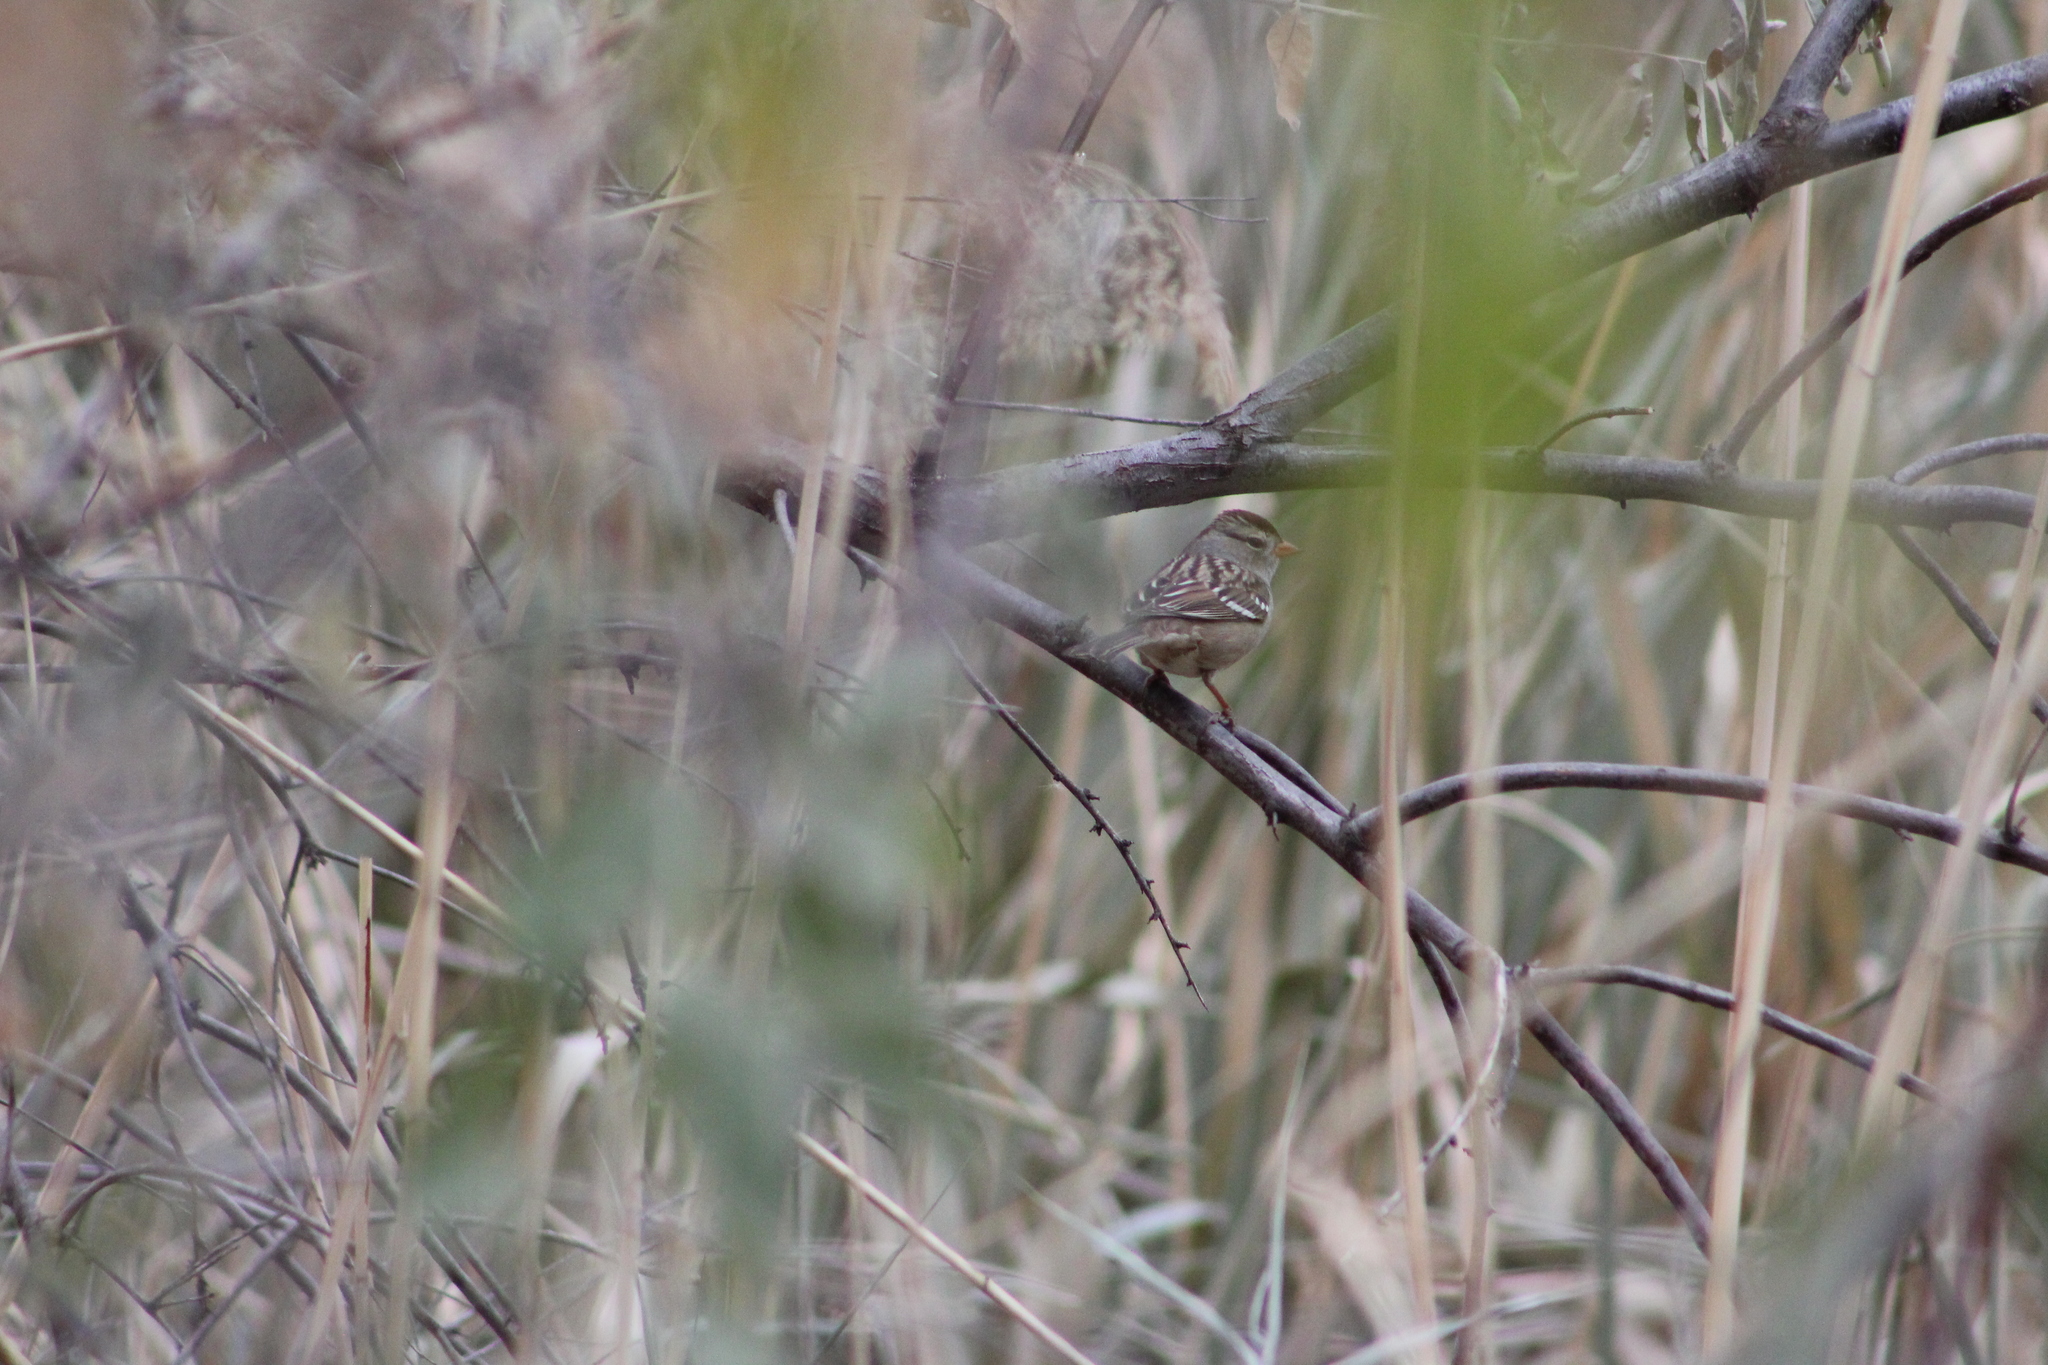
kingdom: Animalia
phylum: Chordata
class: Aves
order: Passeriformes
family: Passerellidae
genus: Zonotrichia
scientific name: Zonotrichia leucophrys
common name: White-crowned sparrow
